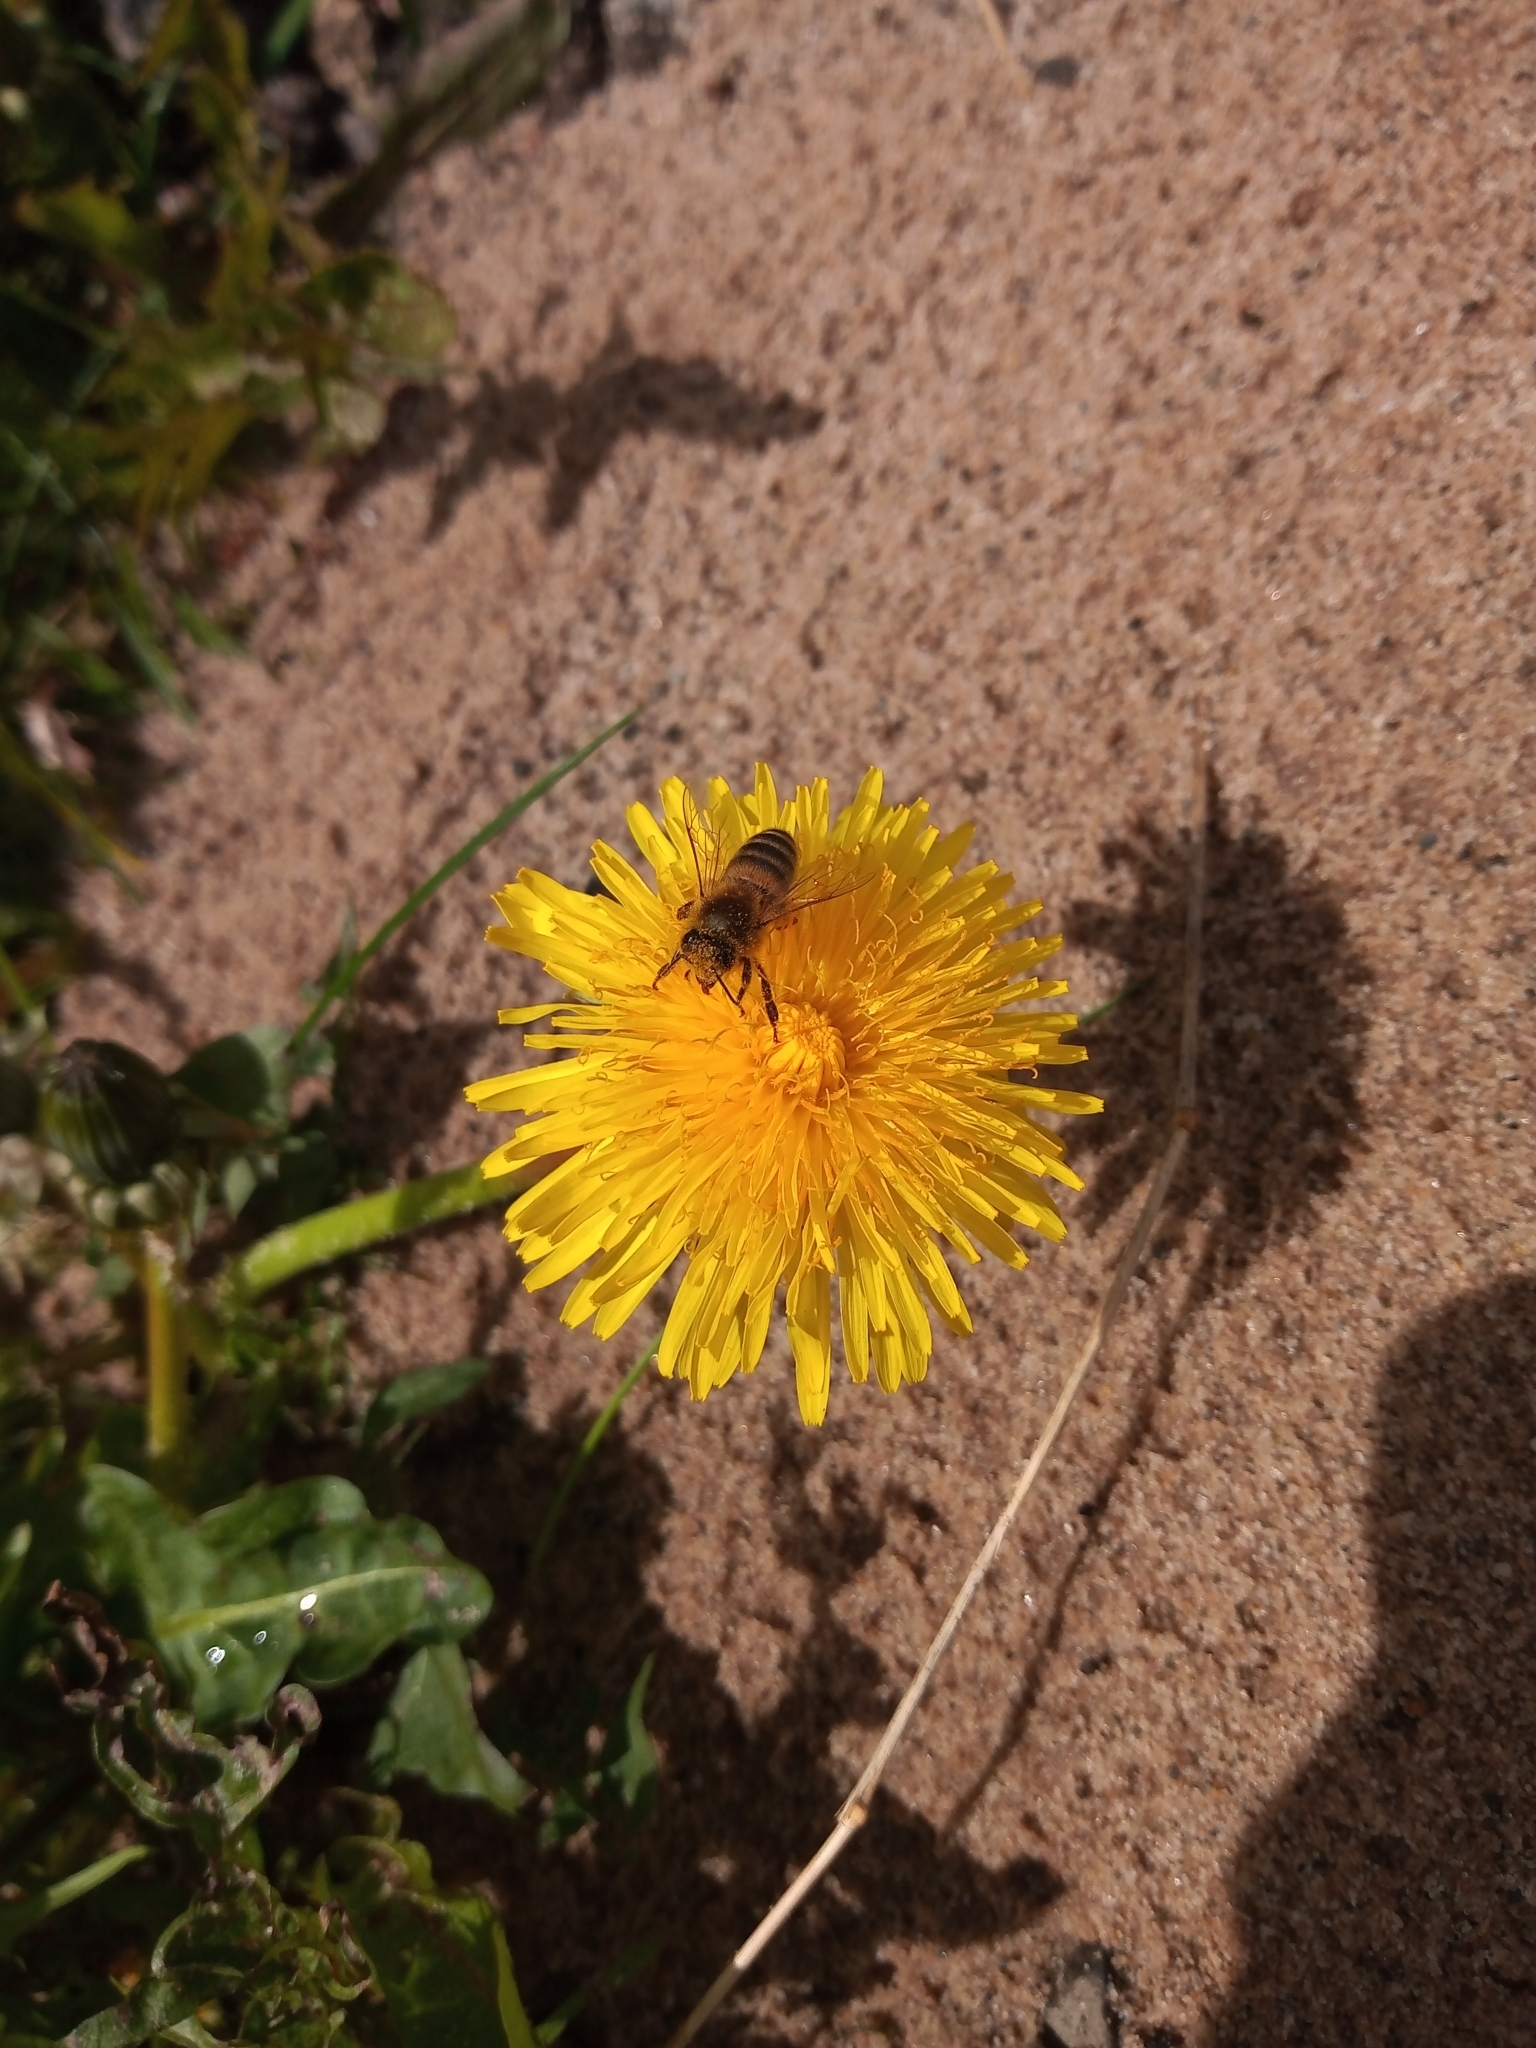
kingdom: Animalia
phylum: Arthropoda
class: Insecta
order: Hymenoptera
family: Apidae
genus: Apis
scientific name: Apis mellifera
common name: Honey bee
